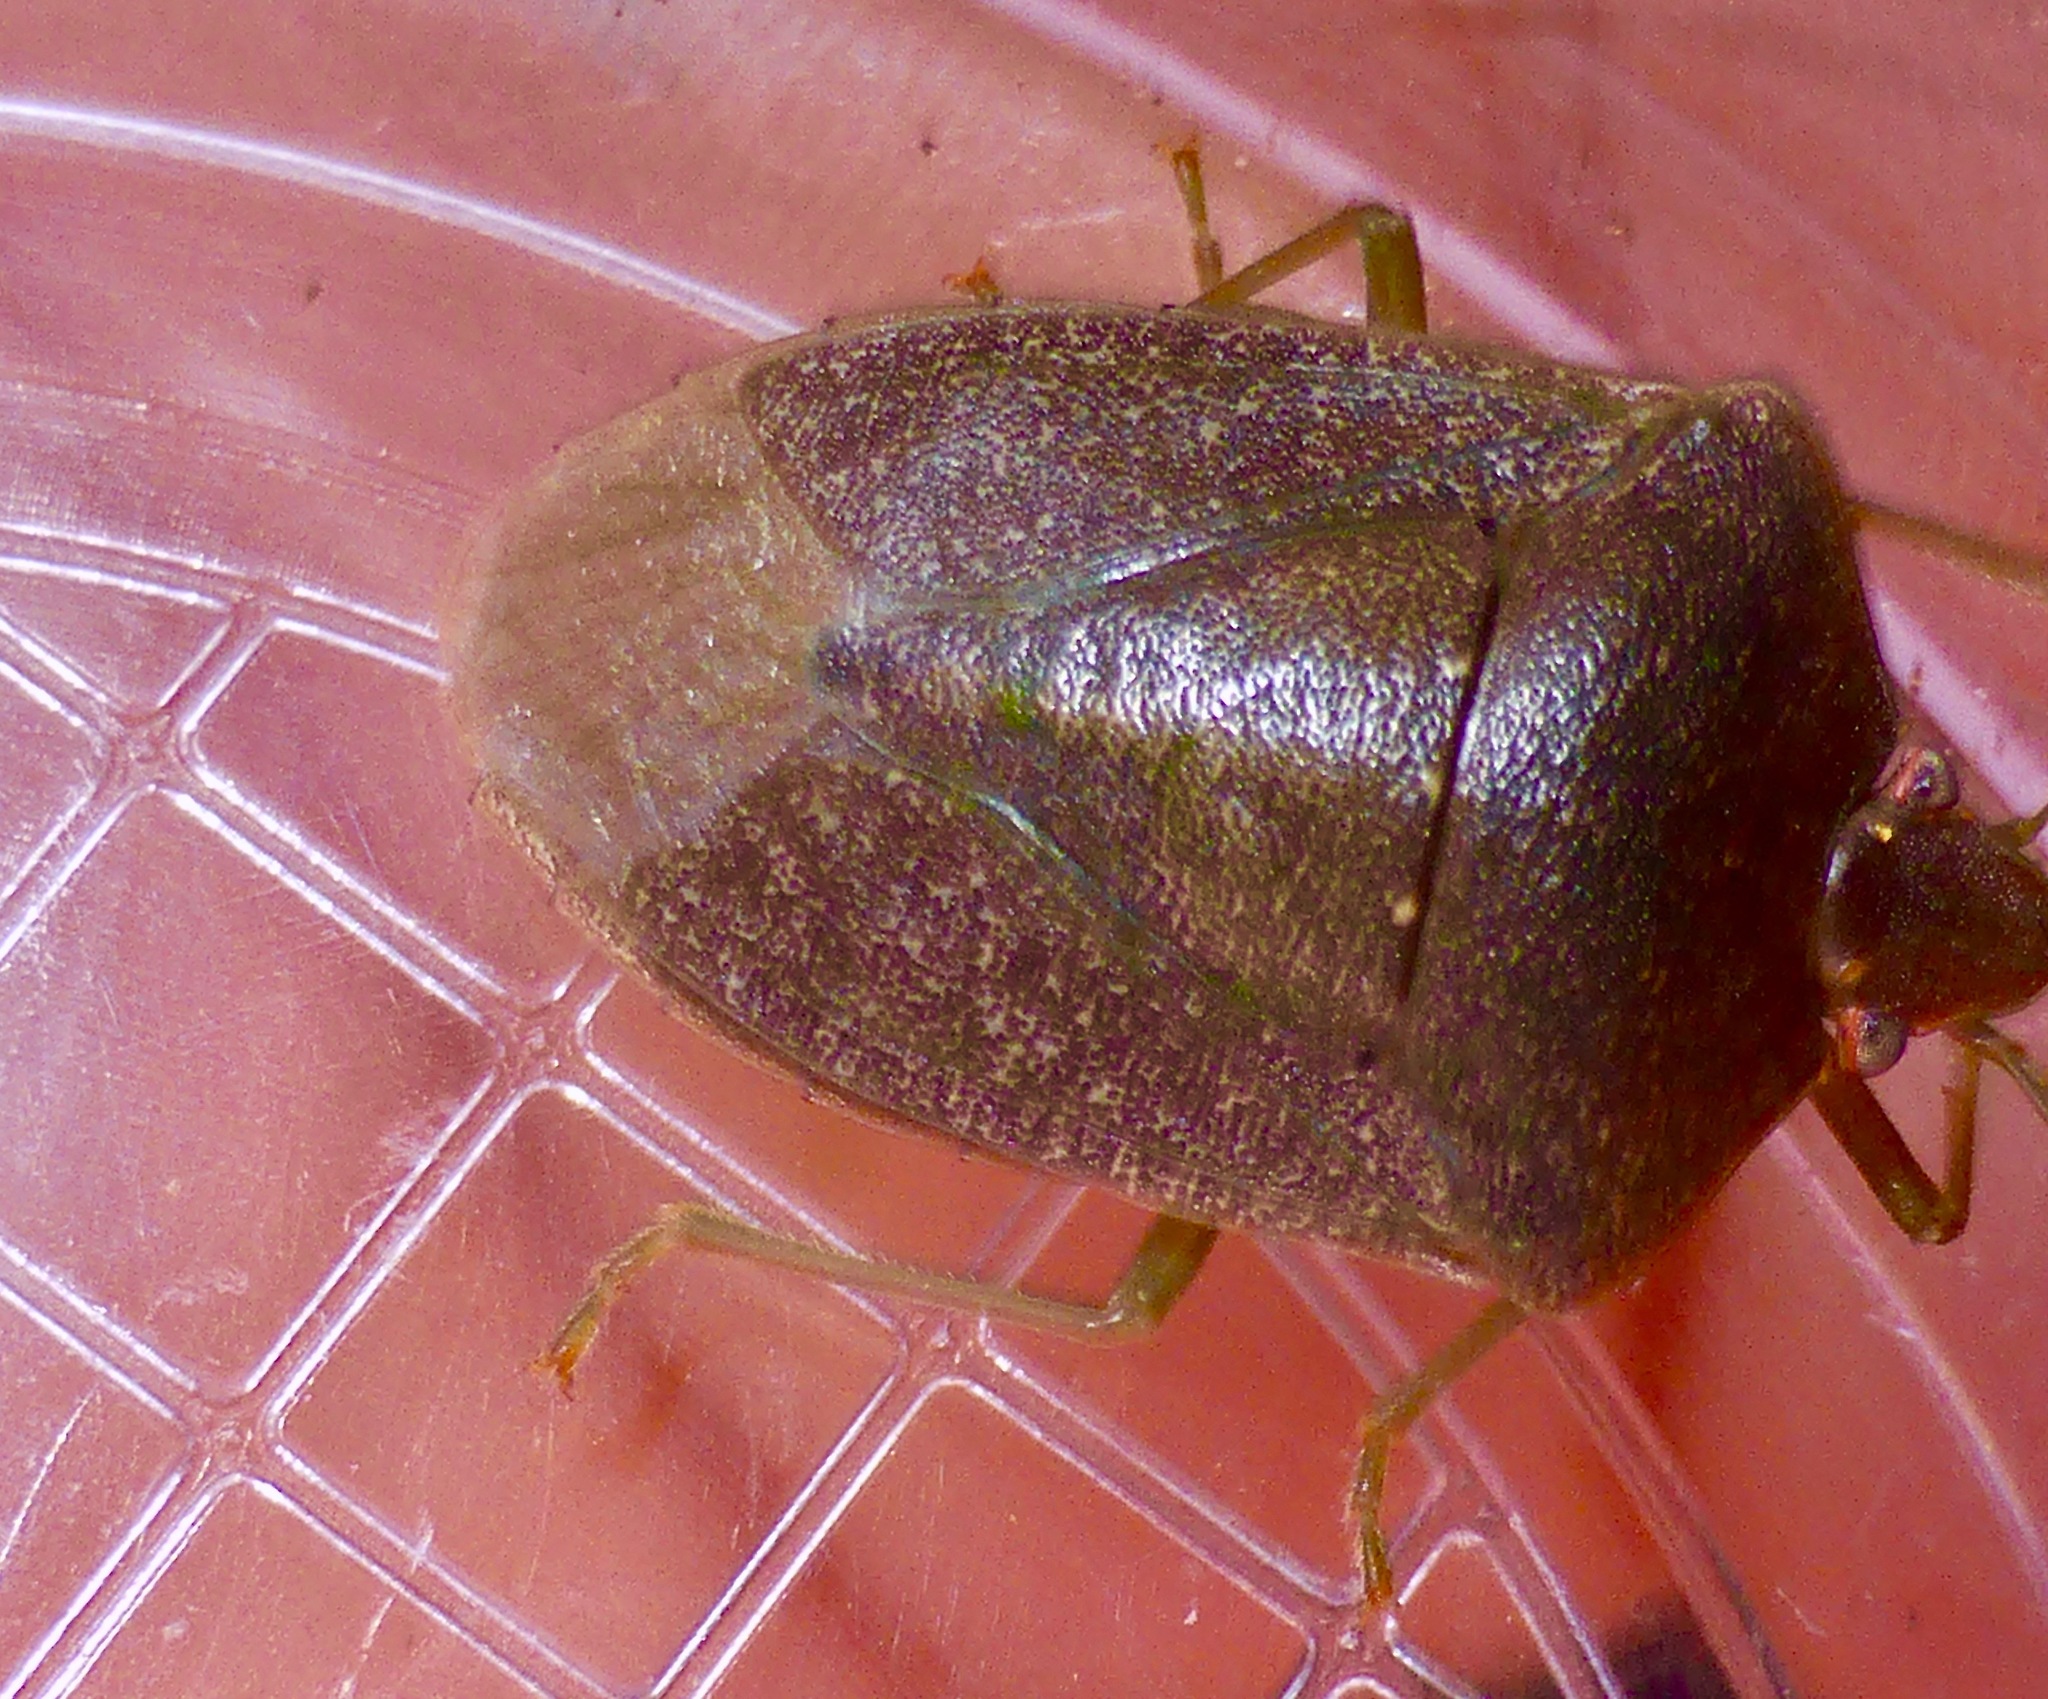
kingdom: Animalia
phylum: Arthropoda
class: Insecta
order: Hemiptera
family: Pentatomidae
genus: Nezara
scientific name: Nezara viridula
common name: Southern green stink bug
